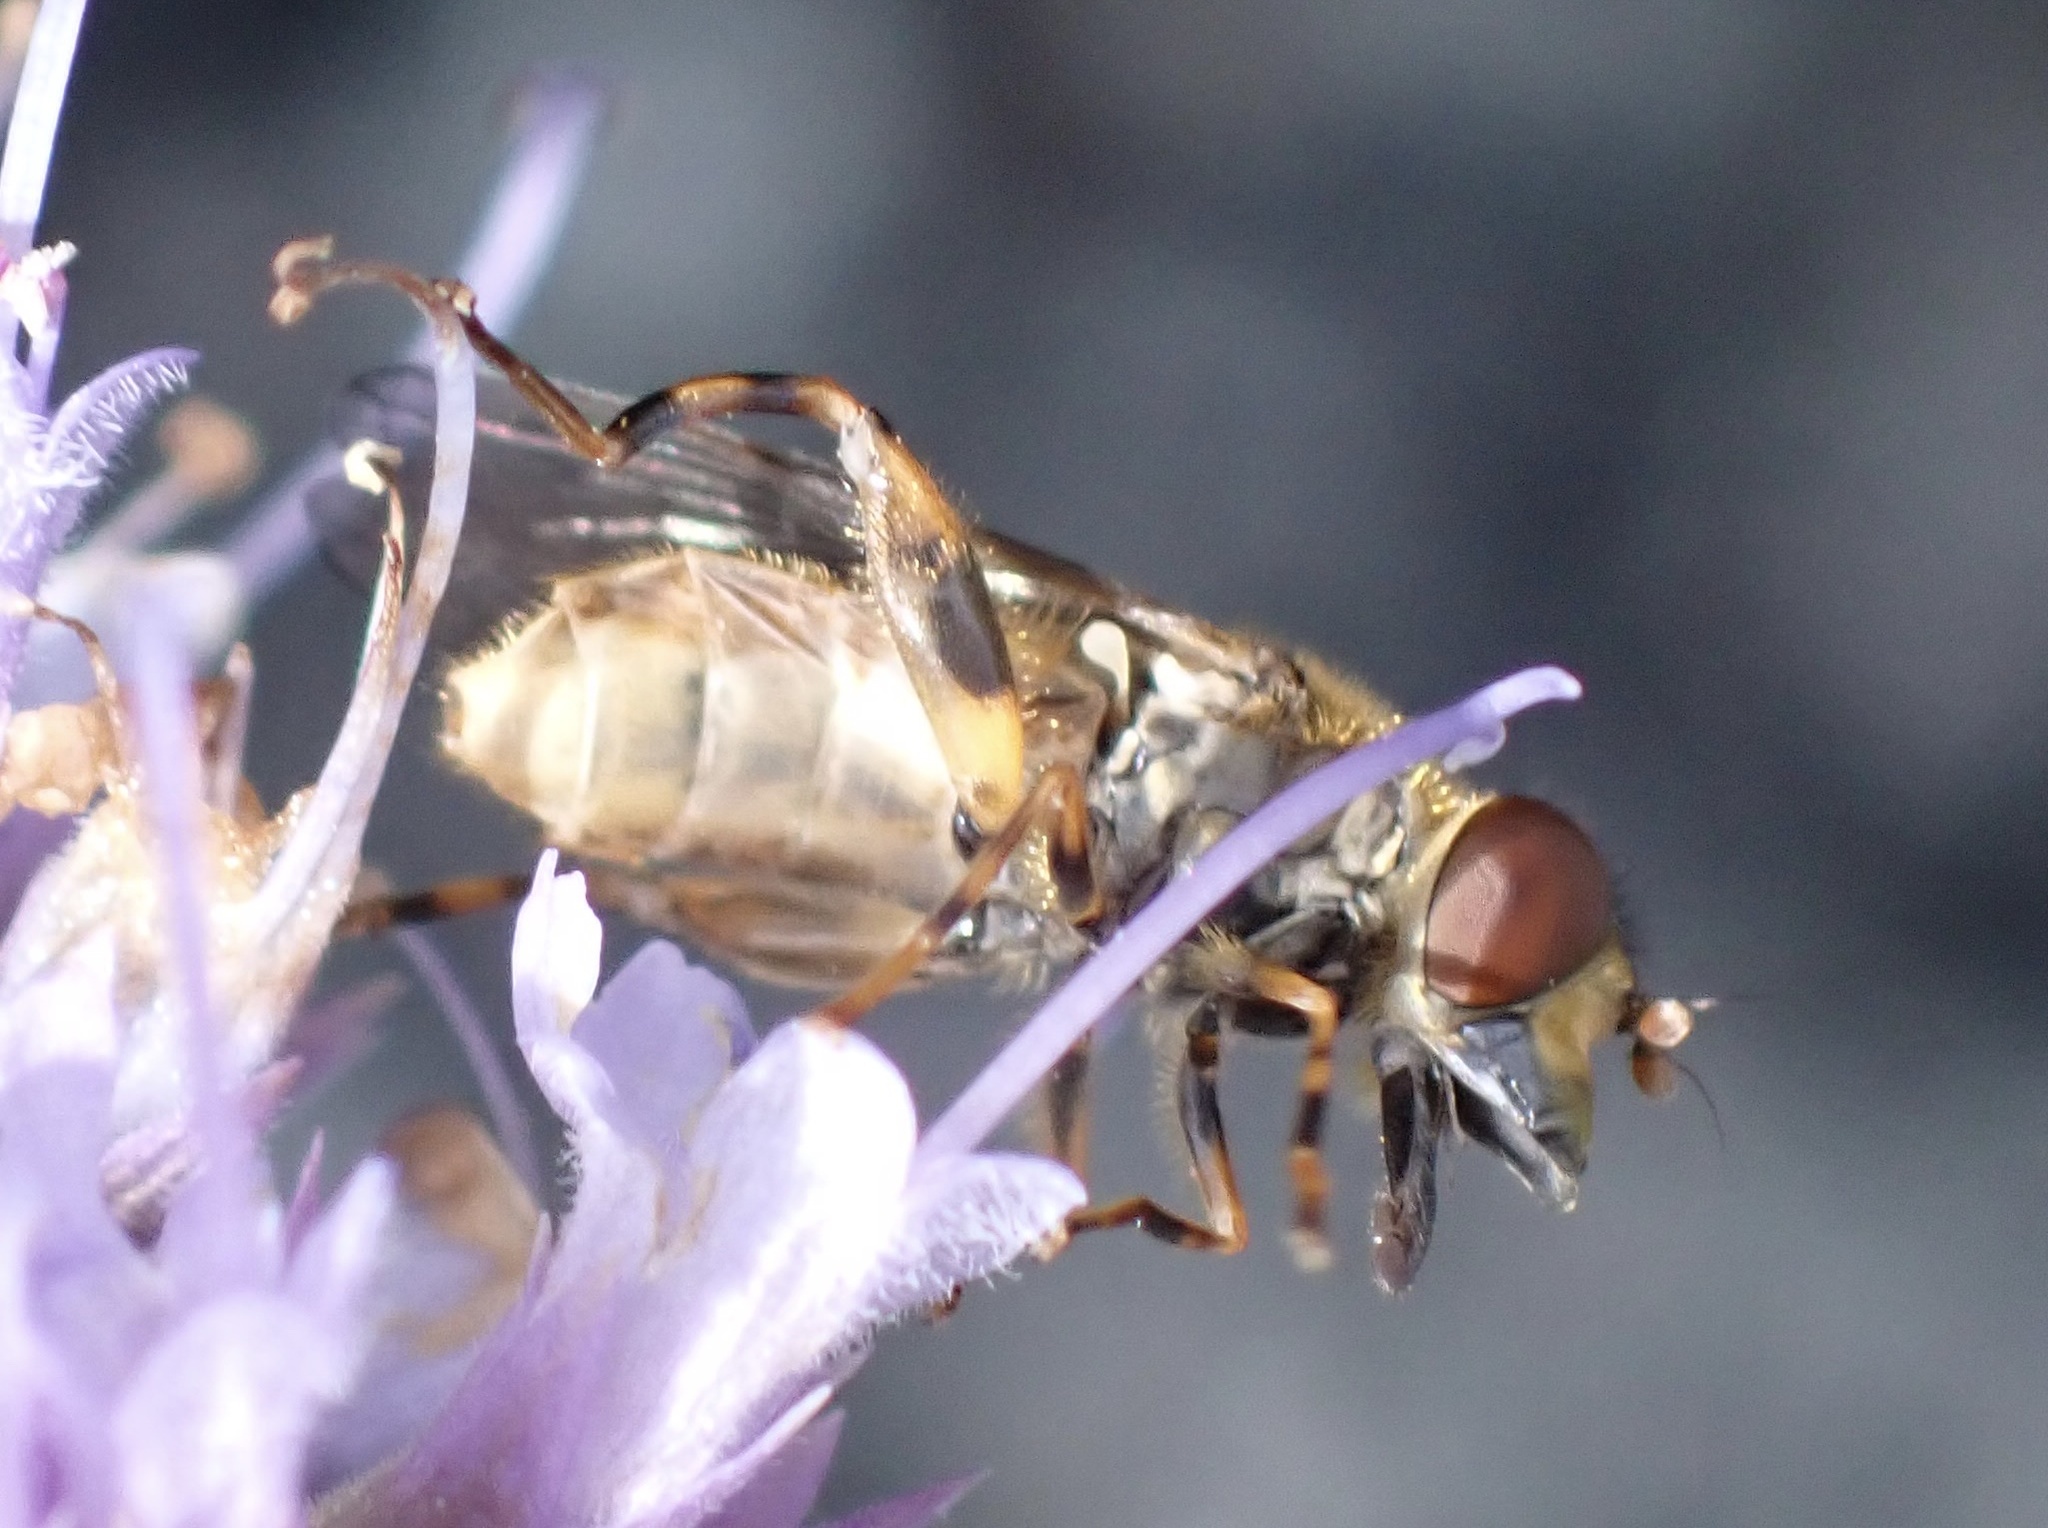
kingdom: Animalia
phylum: Arthropoda
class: Insecta
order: Diptera
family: Syrphidae
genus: Eurimyia
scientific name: Eurimyia lineatus
